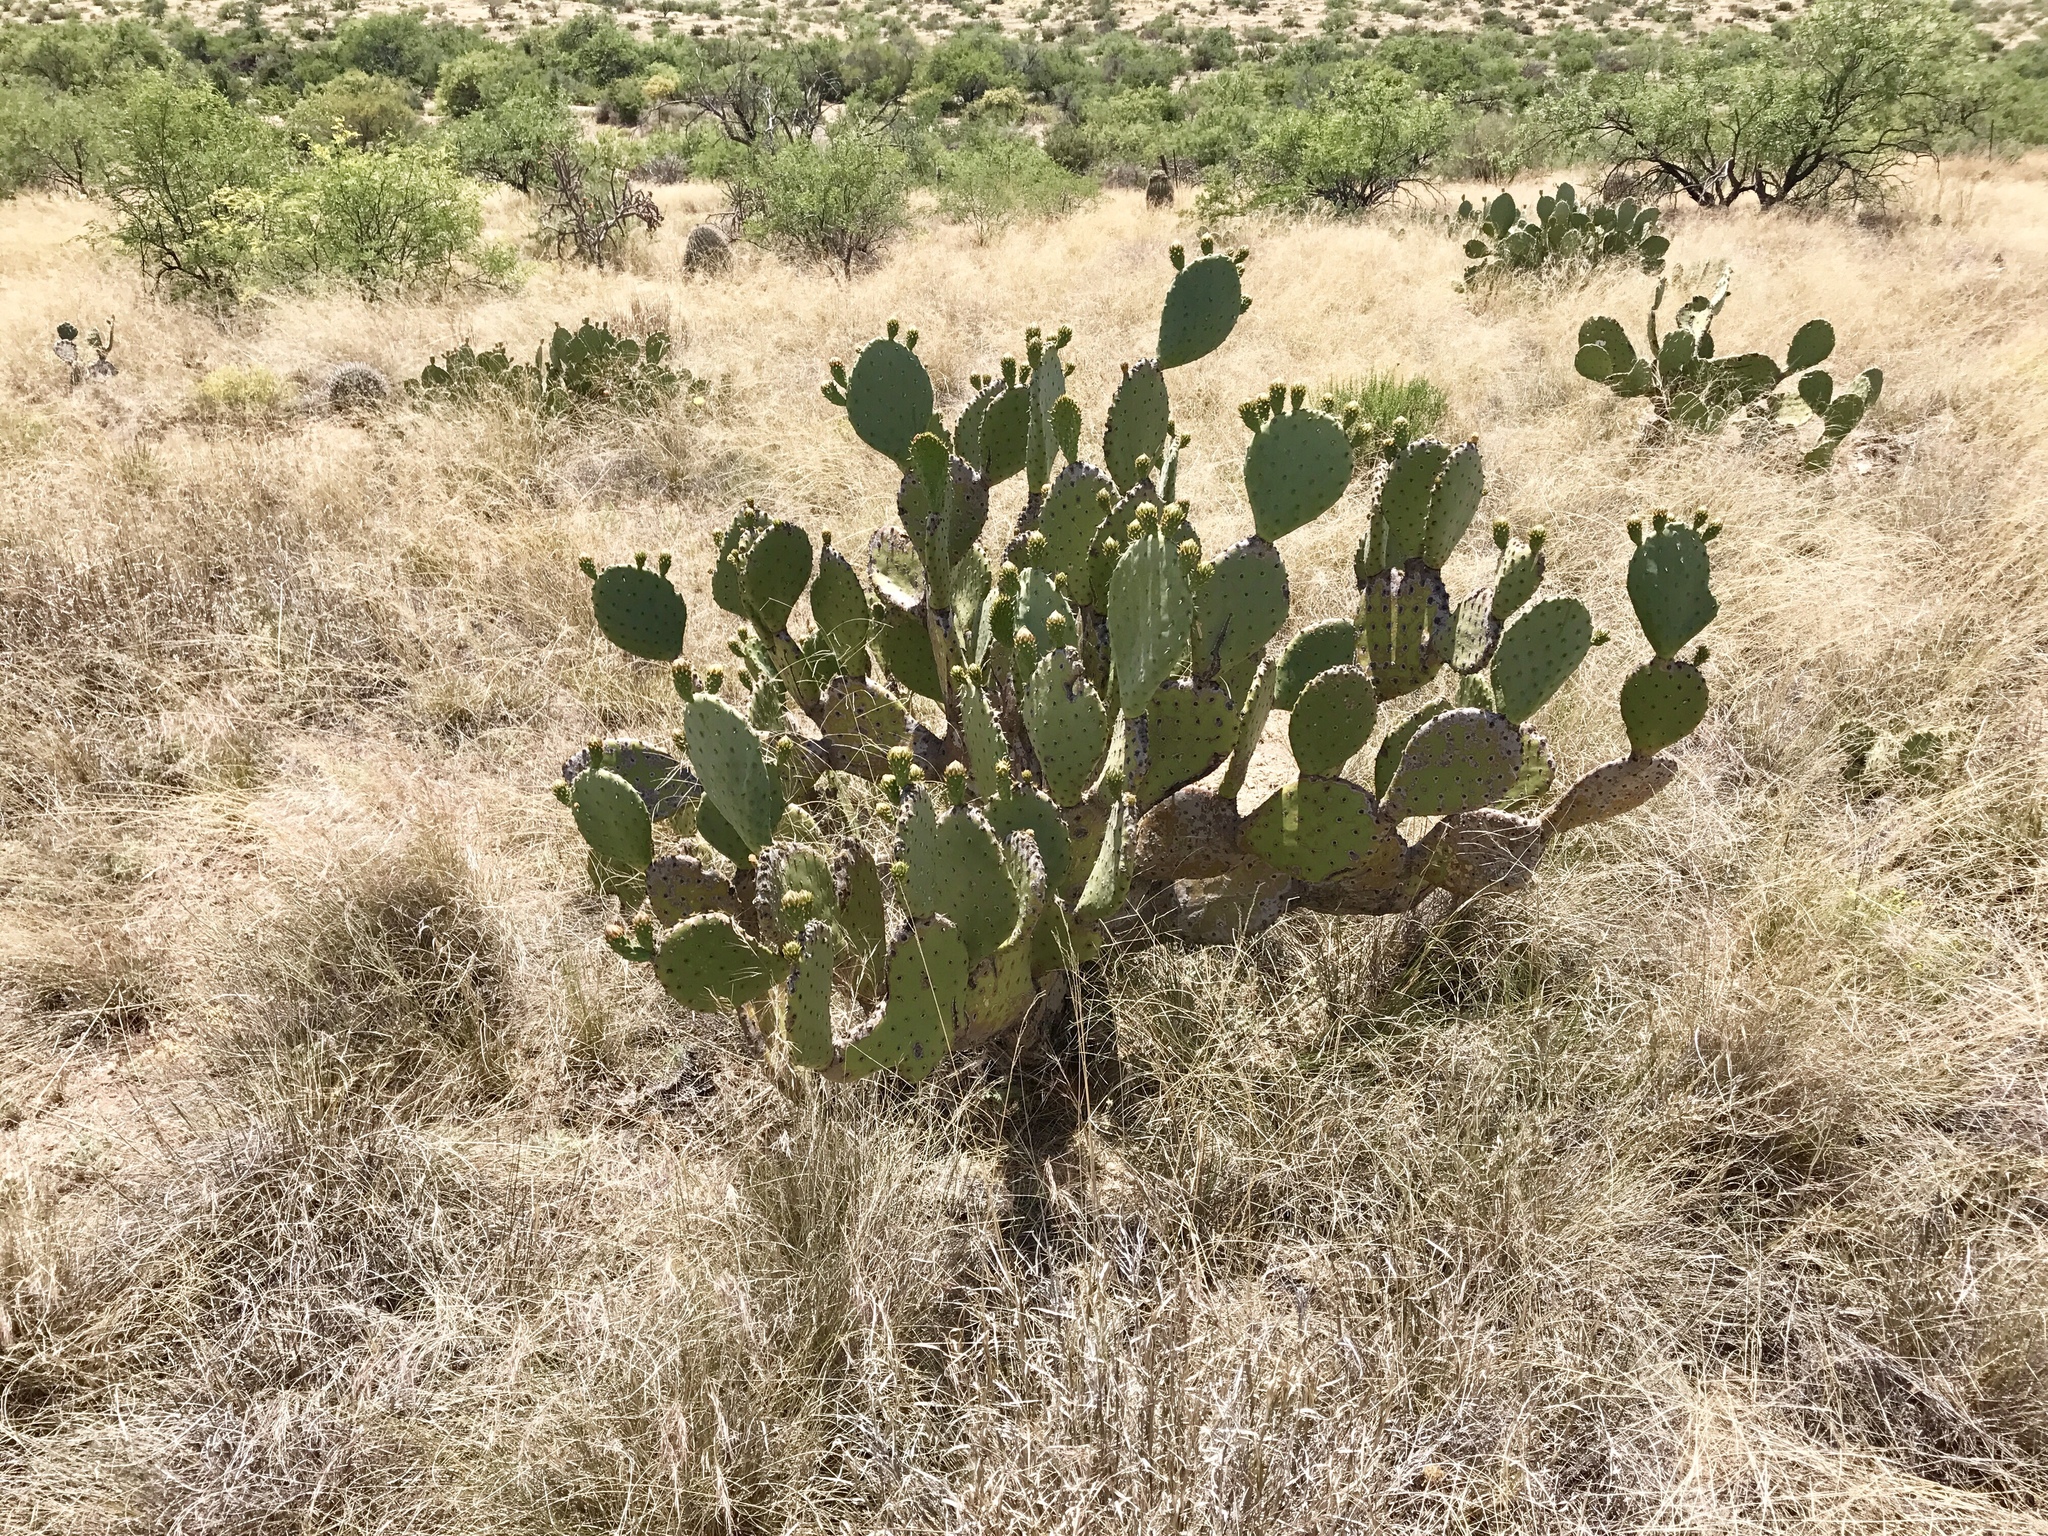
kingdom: Plantae
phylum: Tracheophyta
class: Magnoliopsida
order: Caryophyllales
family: Cactaceae
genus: Opuntia
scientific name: Opuntia chlorotica
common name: Dollar-joint prickly-pear
